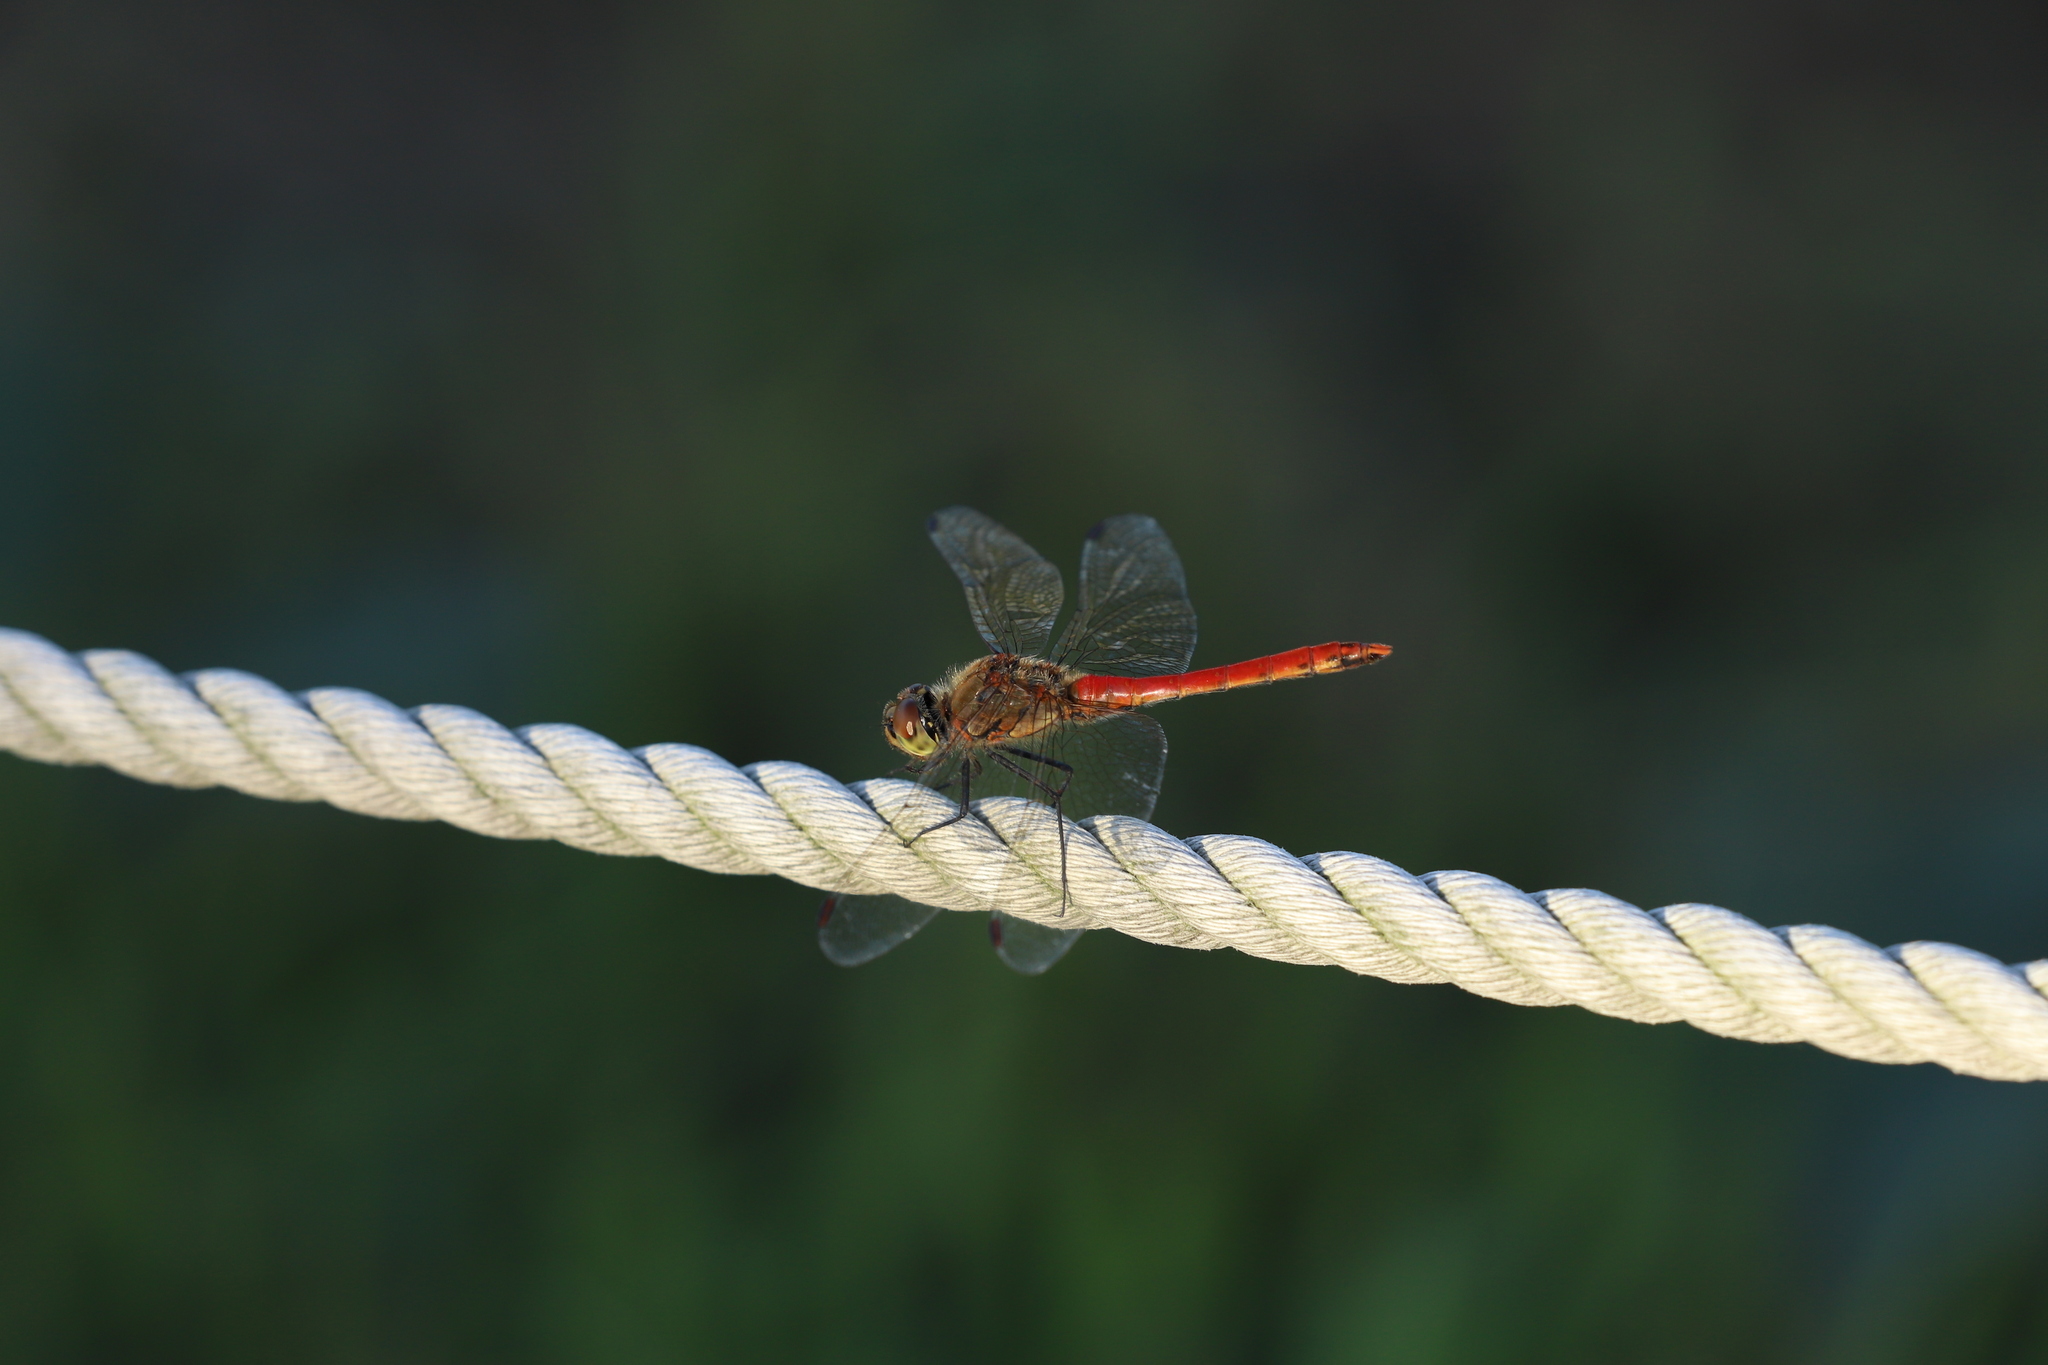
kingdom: Animalia
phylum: Arthropoda
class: Insecta
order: Odonata
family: Libellulidae
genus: Sympetrum
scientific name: Sympetrum frequens
